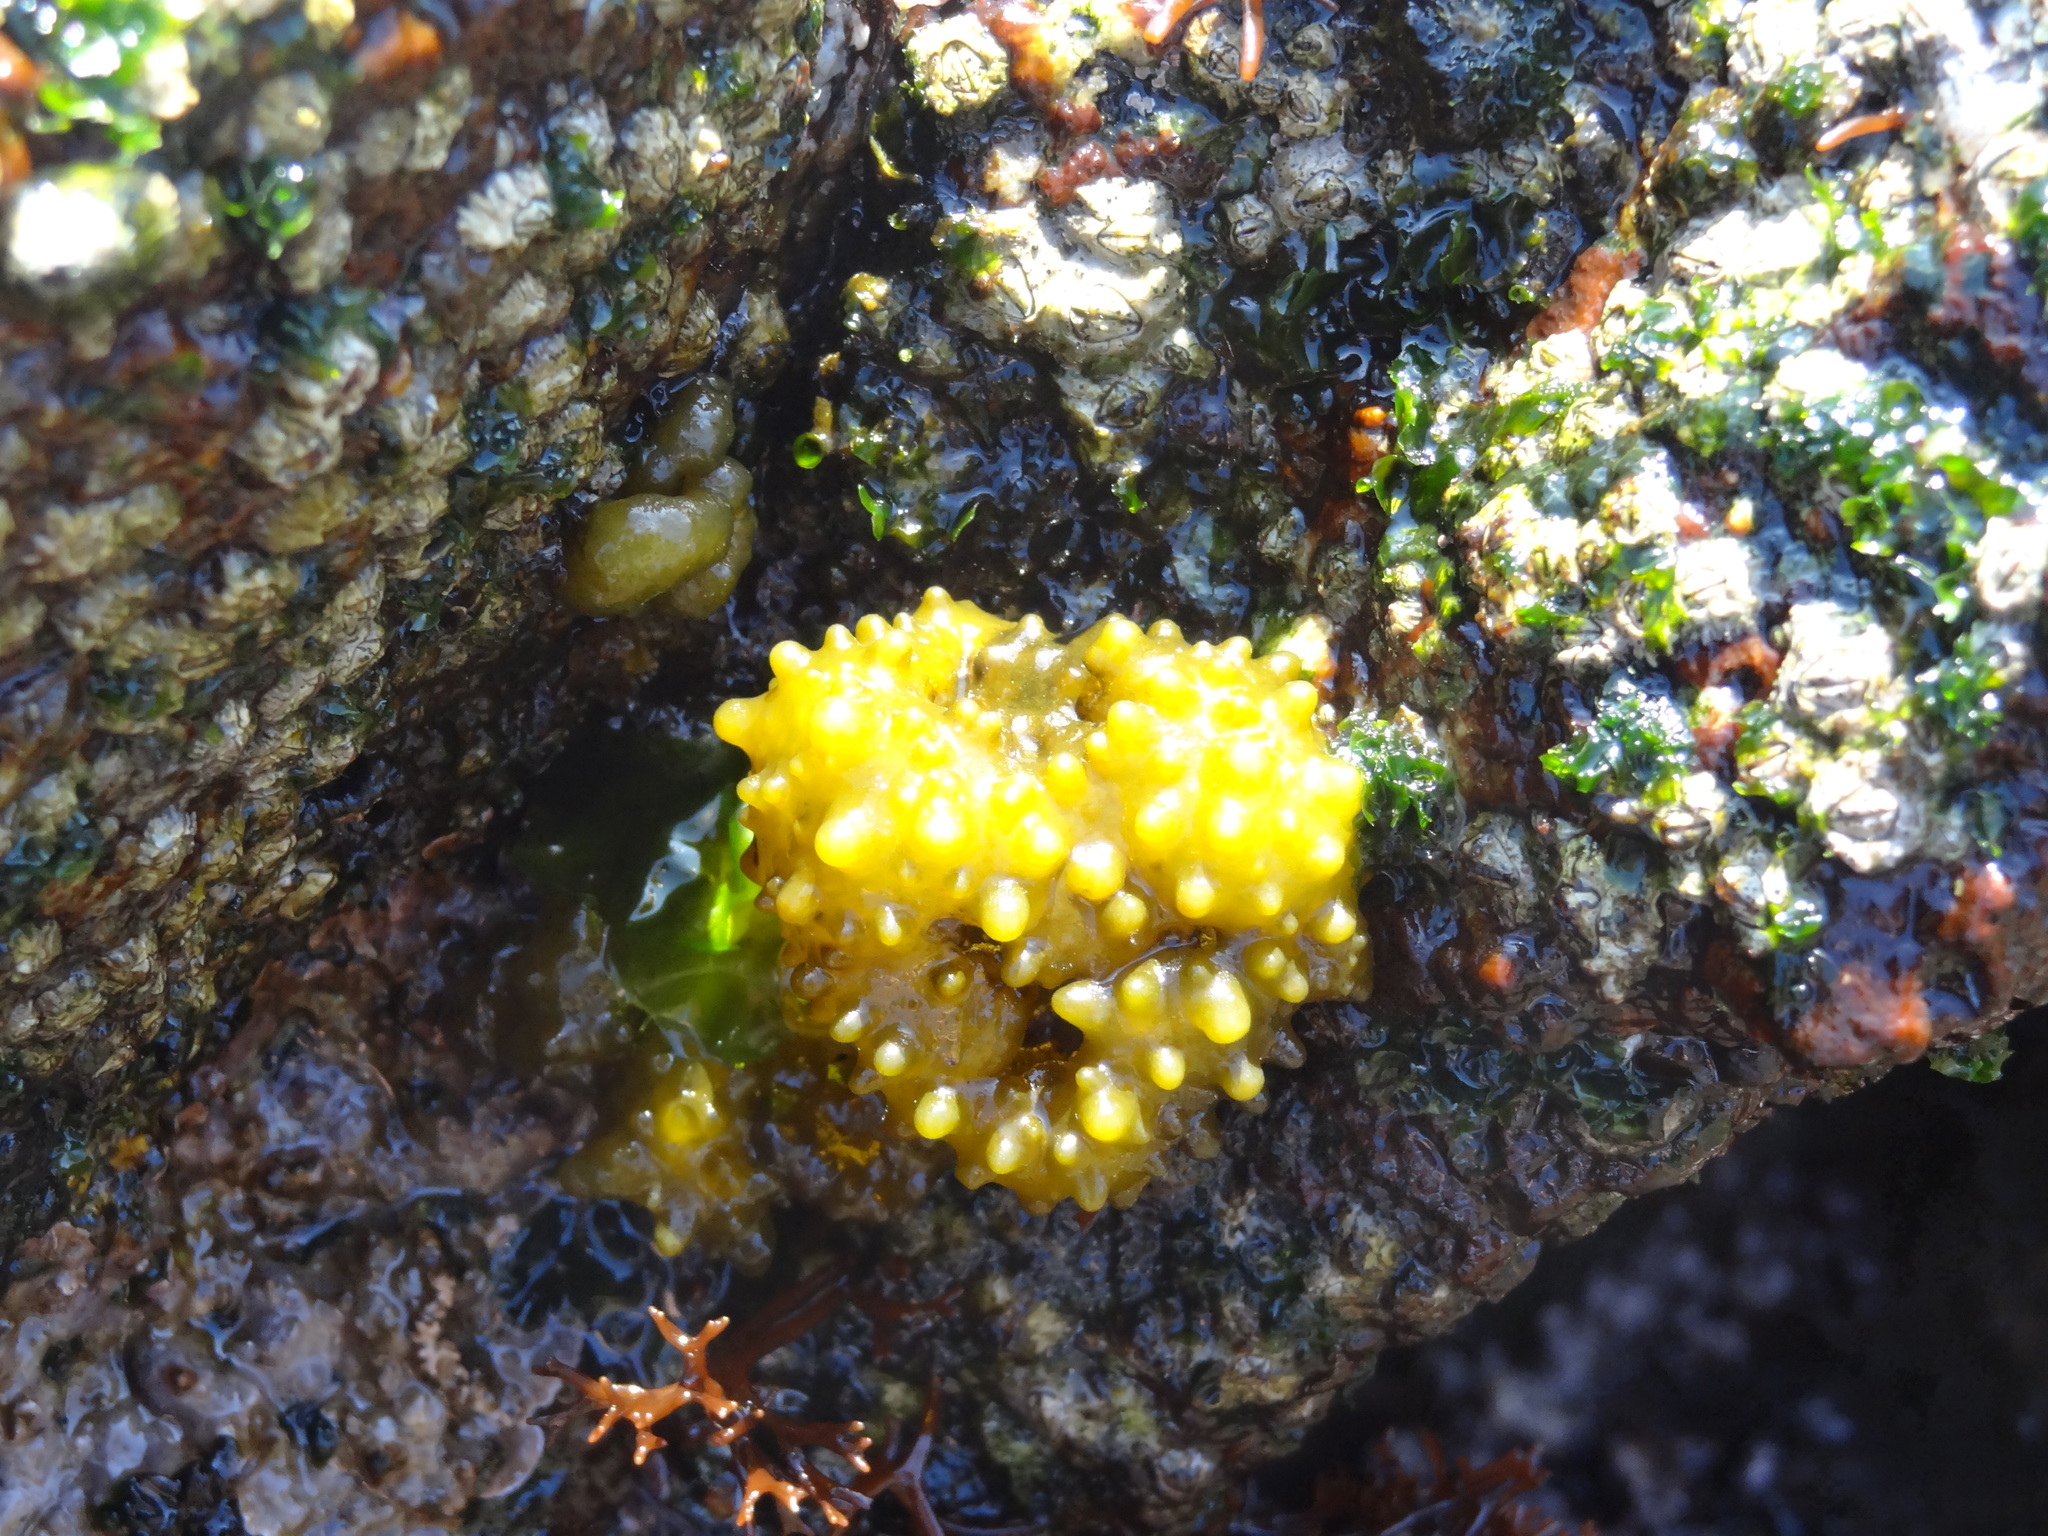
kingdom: Chromista
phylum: Ochrophyta
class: Phaeophyceae
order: Scytosiphonales
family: Scytosiphonaceae
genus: Colpomenia
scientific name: Colpomenia
